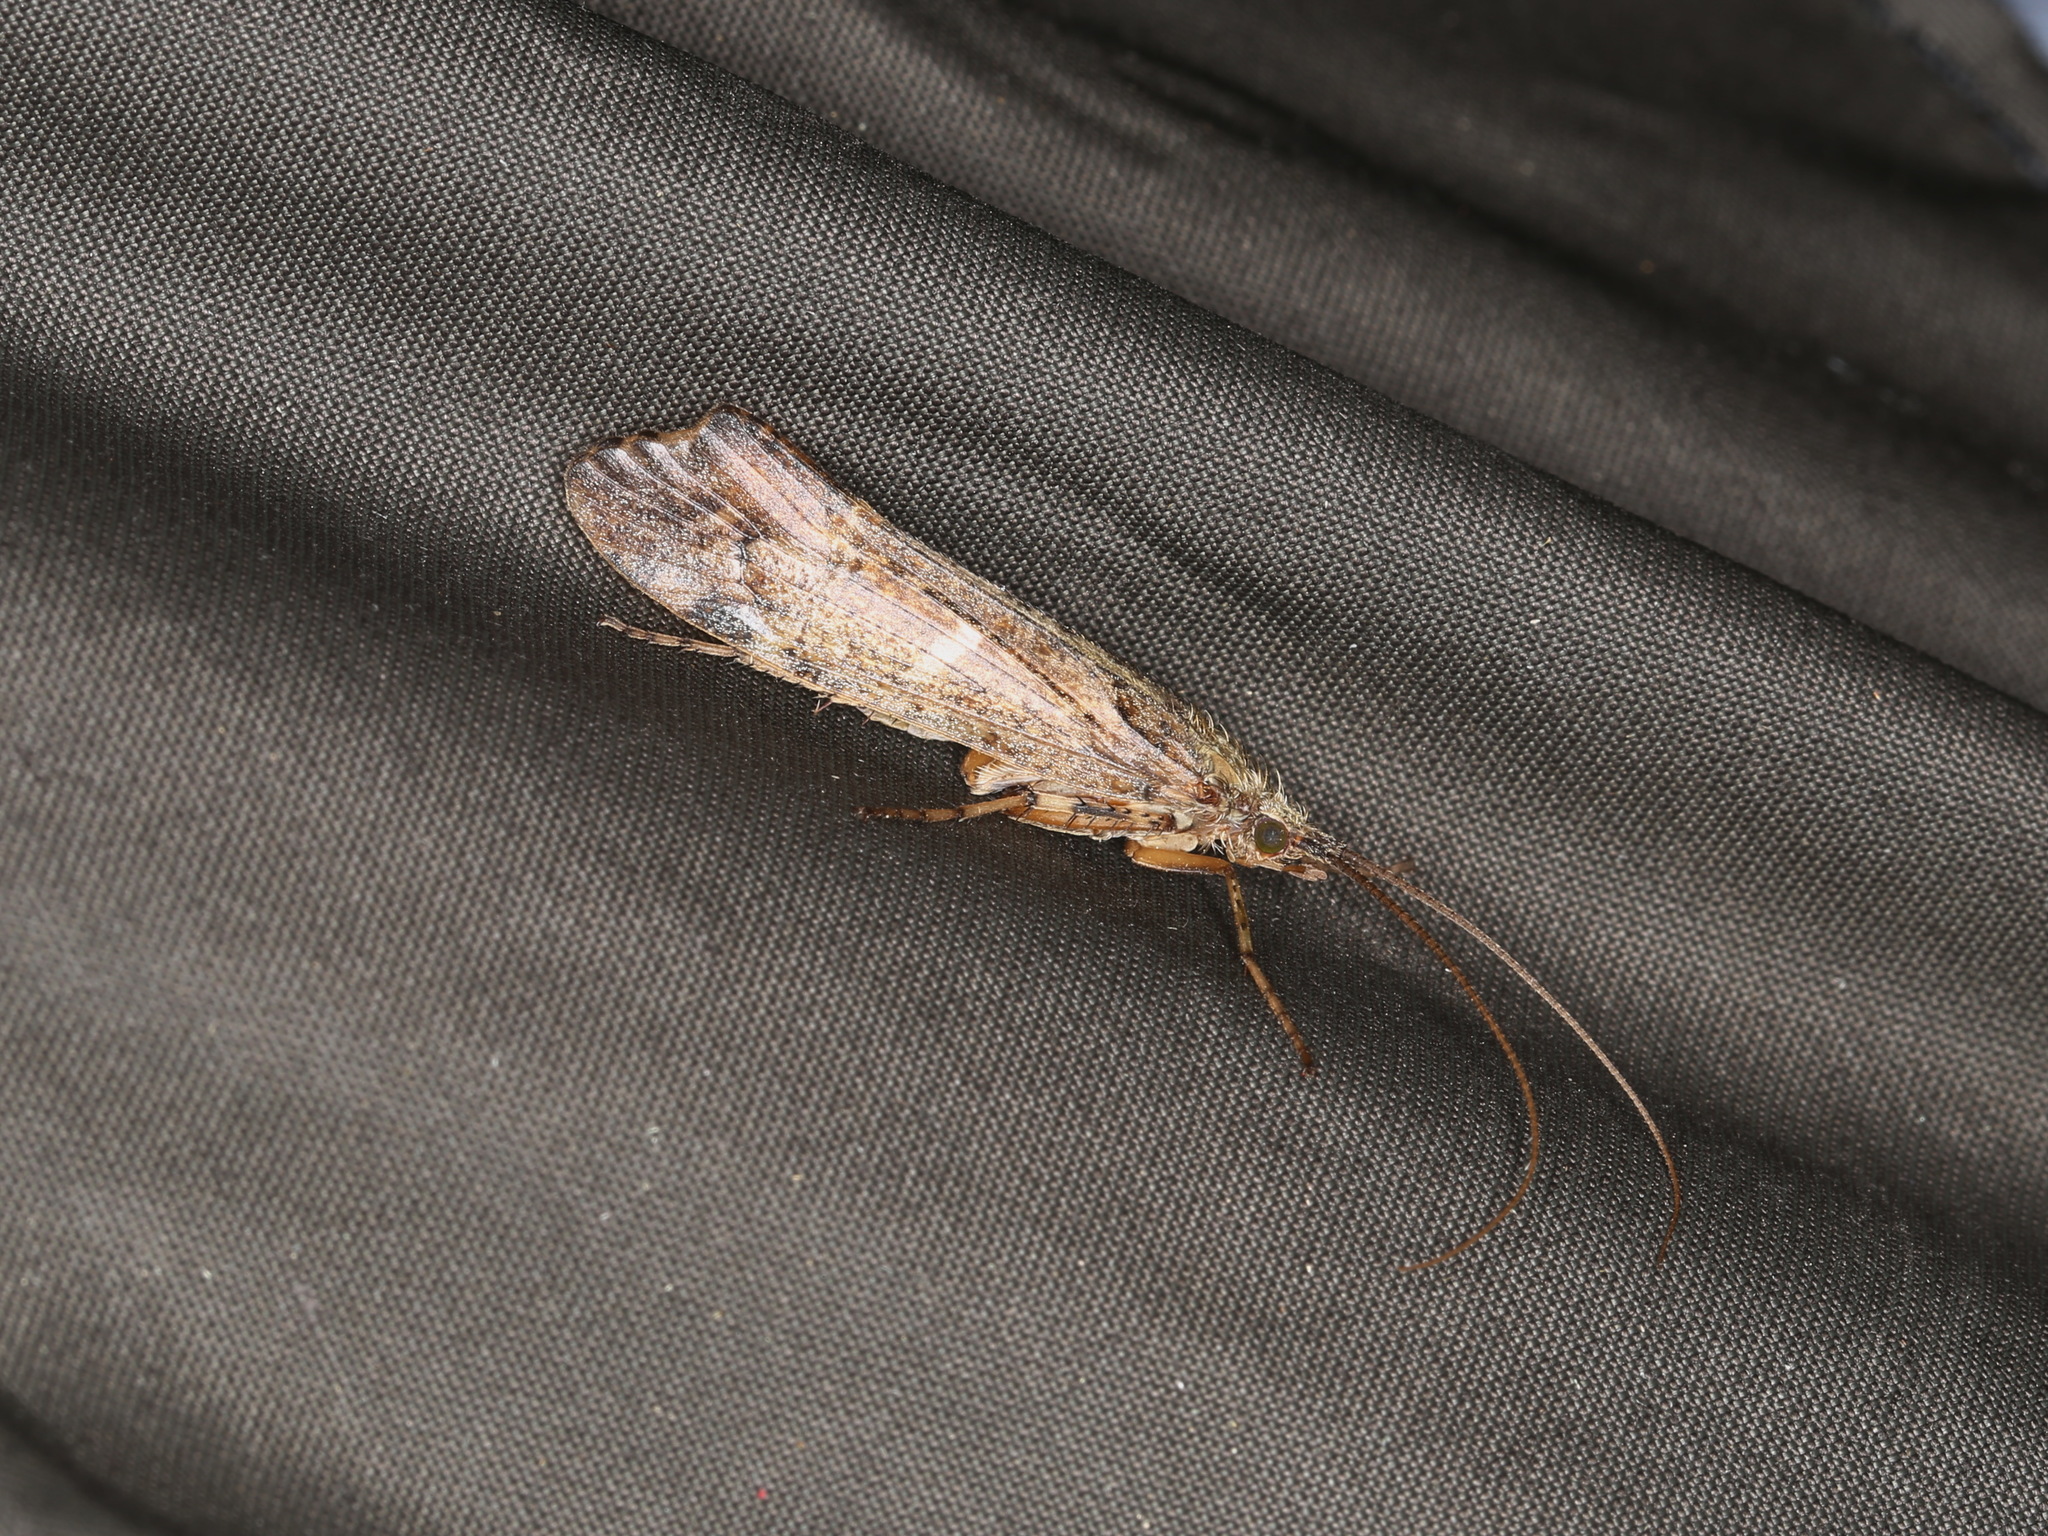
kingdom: Animalia
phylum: Arthropoda
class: Insecta
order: Trichoptera
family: Limnephilidae
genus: Glyphotaelius
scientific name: Glyphotaelius pellucidus
